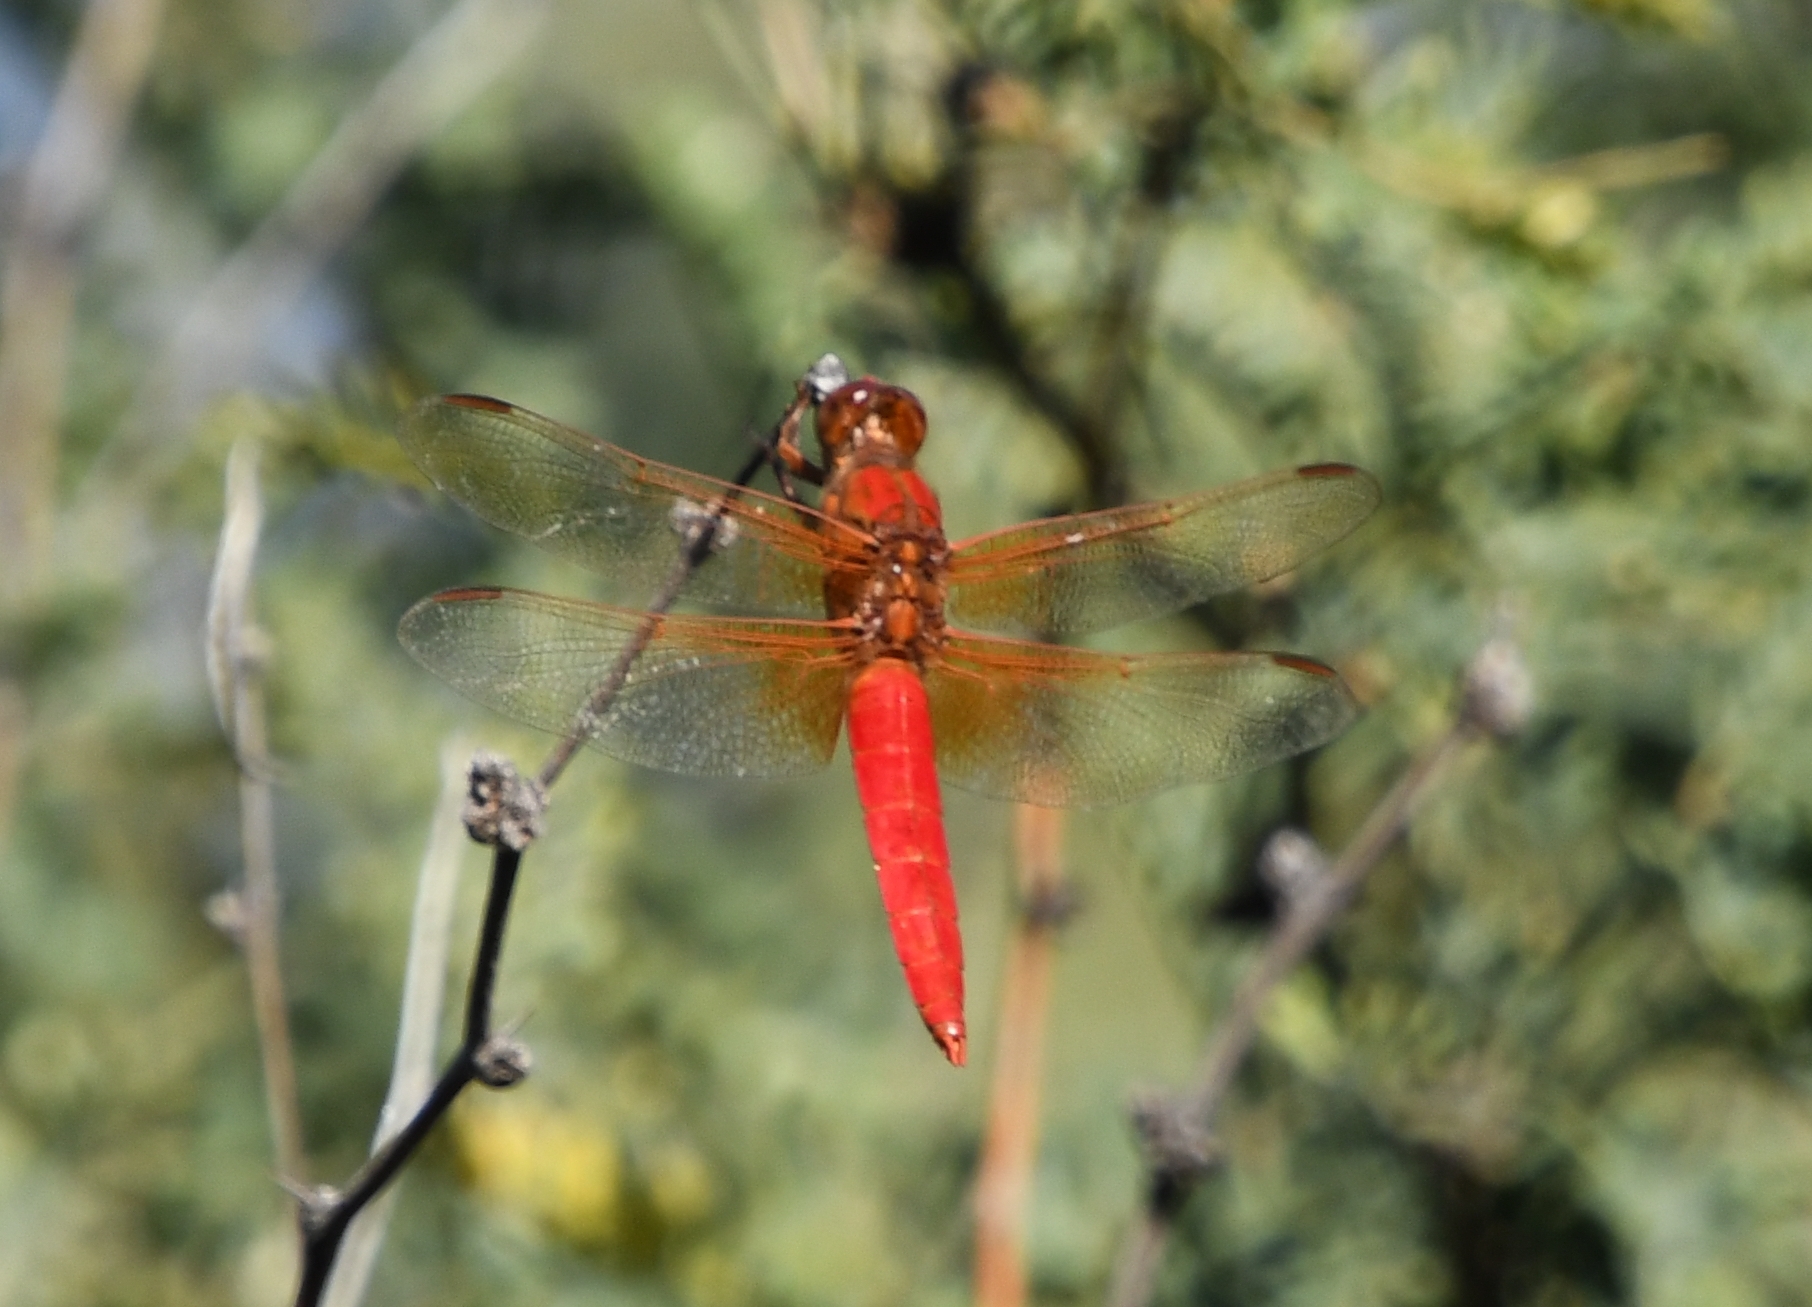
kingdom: Animalia
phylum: Arthropoda
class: Insecta
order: Odonata
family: Libellulidae
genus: Libellula
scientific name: Libellula croceipennis
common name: Neon skimmer
